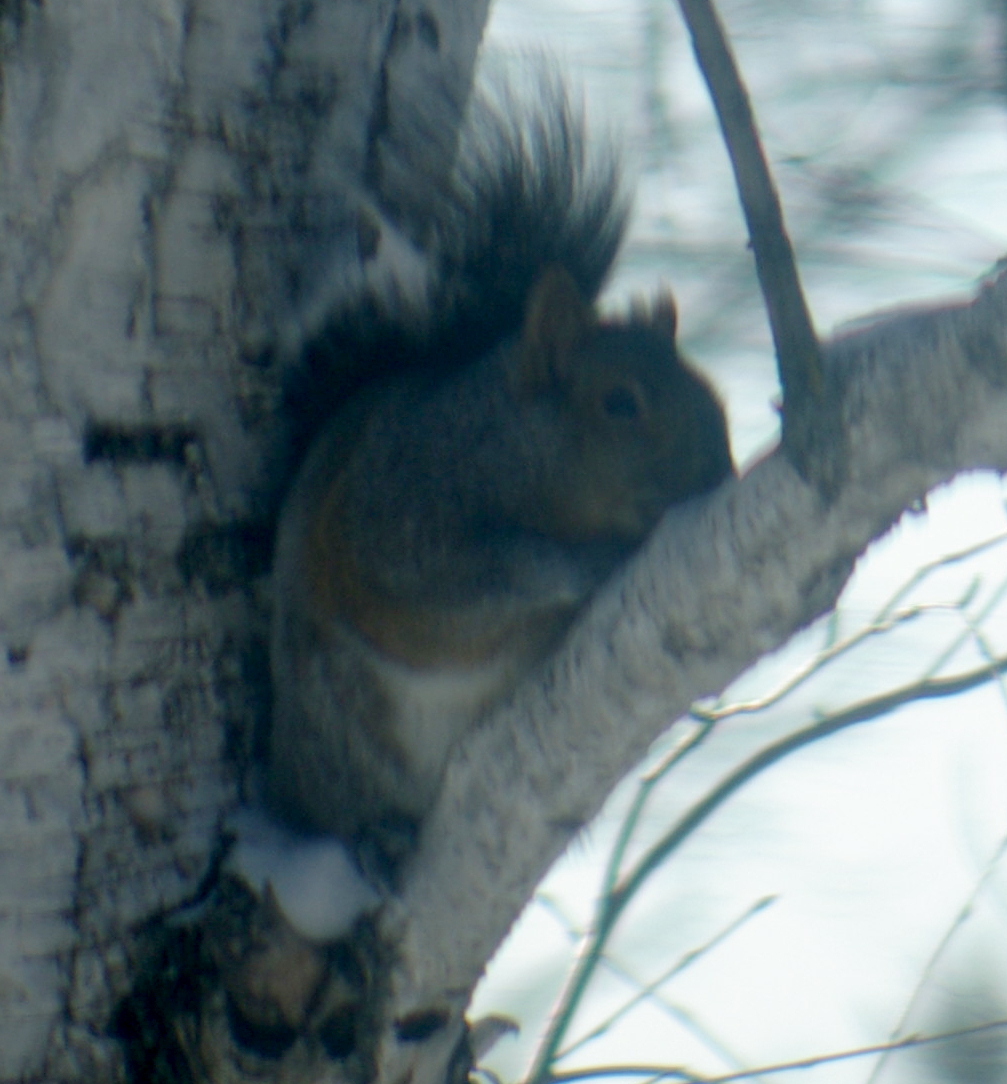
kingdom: Animalia
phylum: Chordata
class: Mammalia
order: Rodentia
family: Sciuridae
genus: Sciurus
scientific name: Sciurus carolinensis
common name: Eastern gray squirrel
